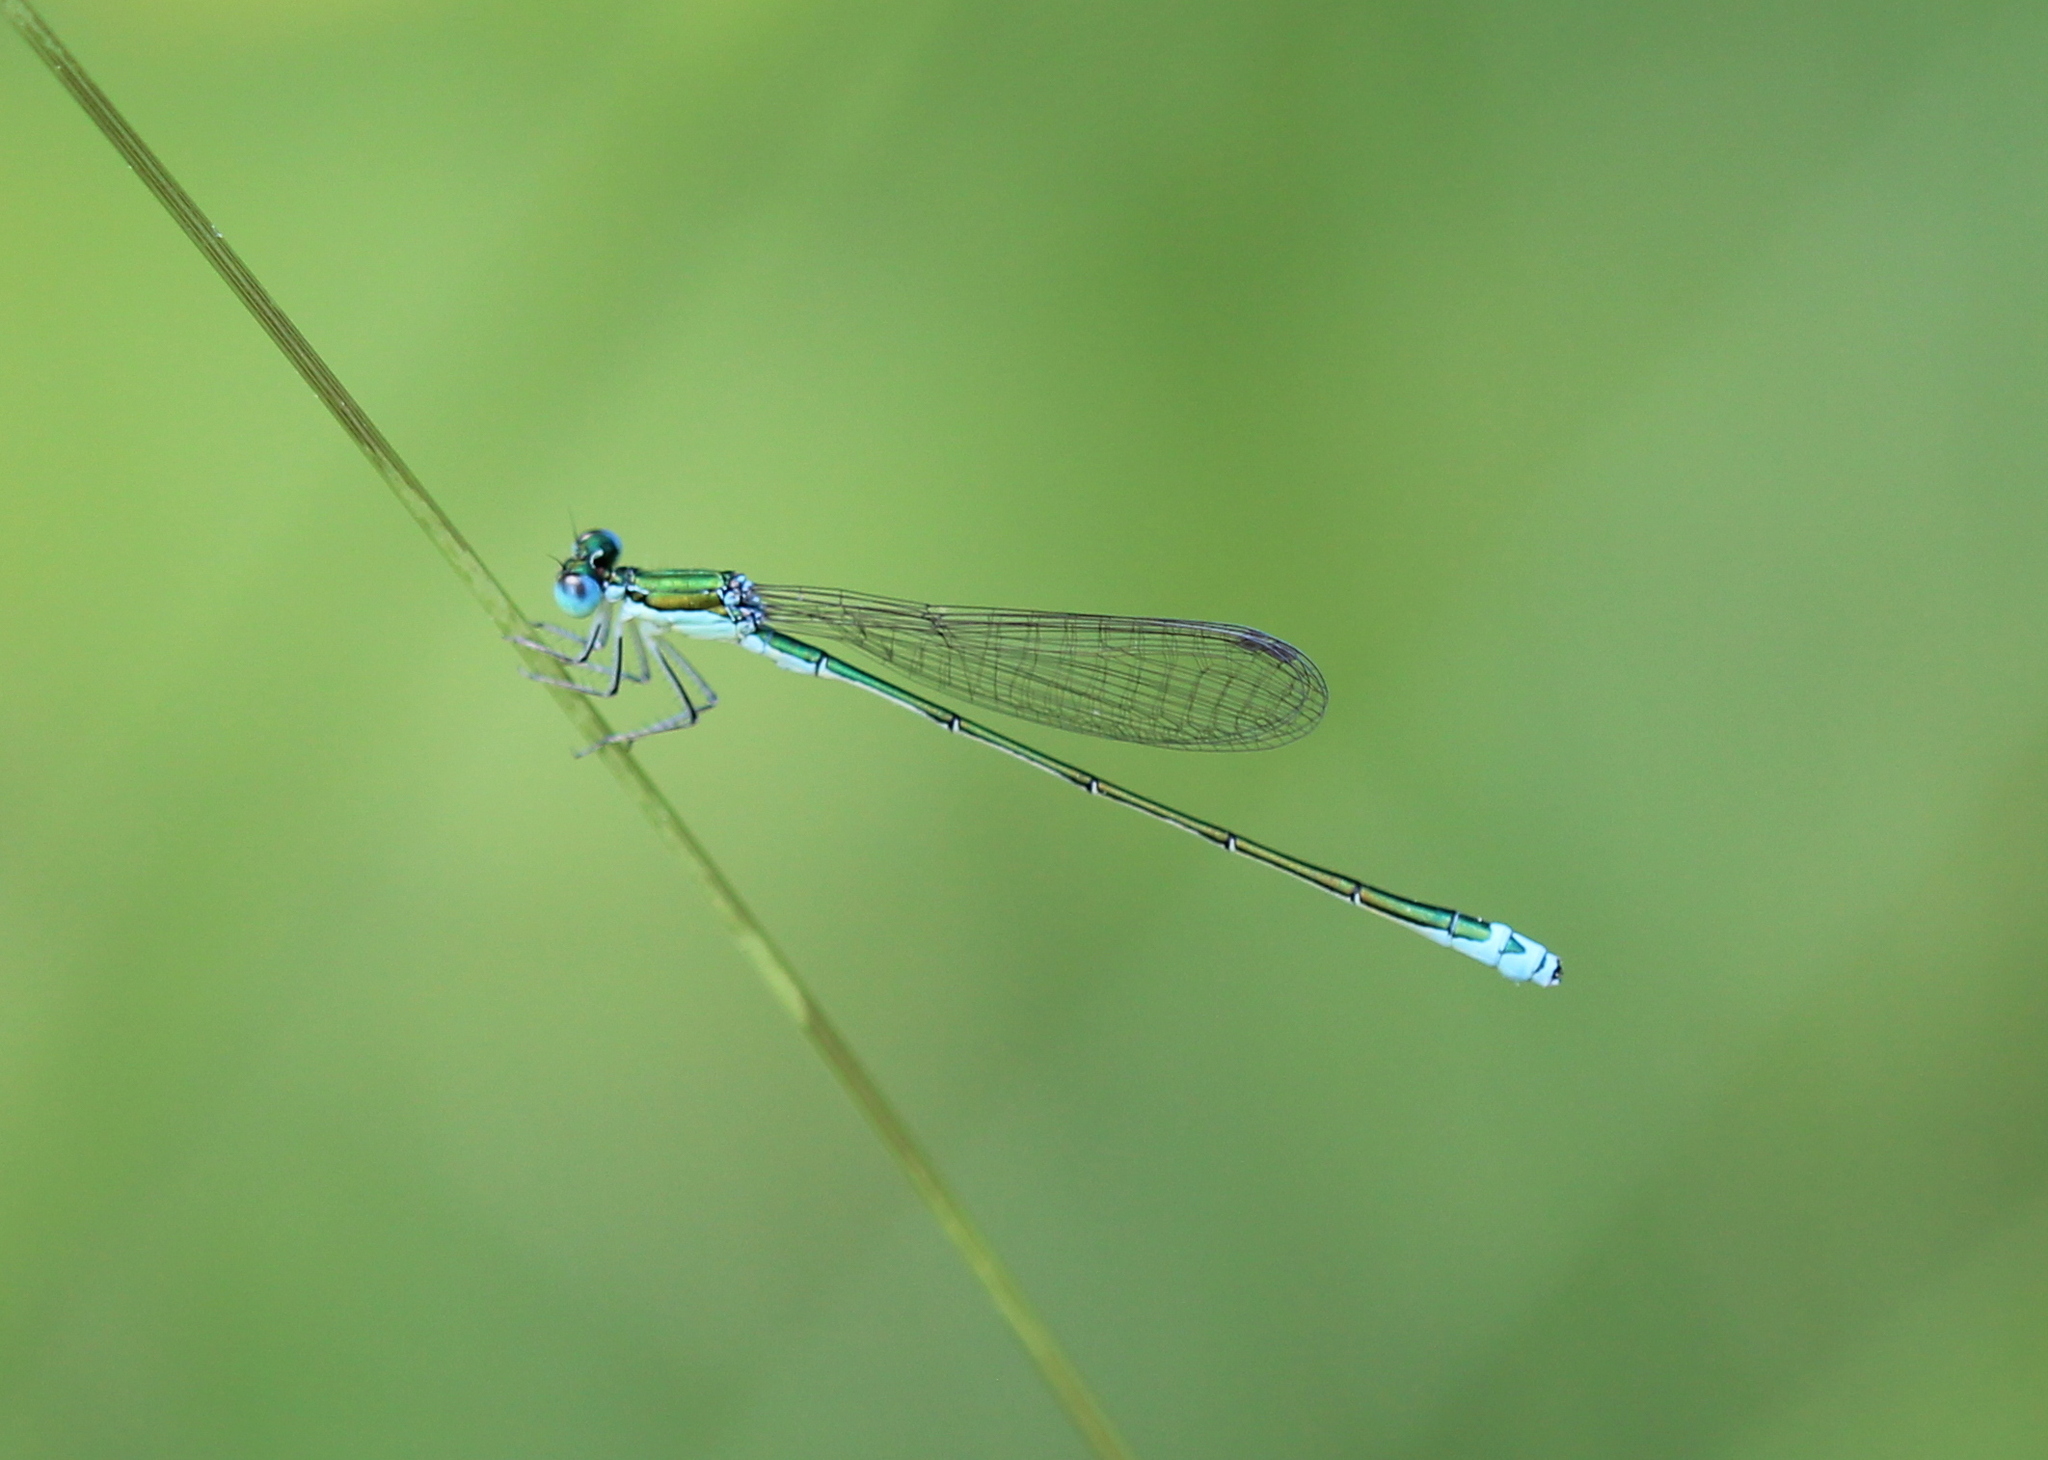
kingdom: Animalia
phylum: Arthropoda
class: Insecta
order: Odonata
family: Coenagrionidae
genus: Nehalennia
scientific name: Nehalennia irene
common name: Sedge sprite
